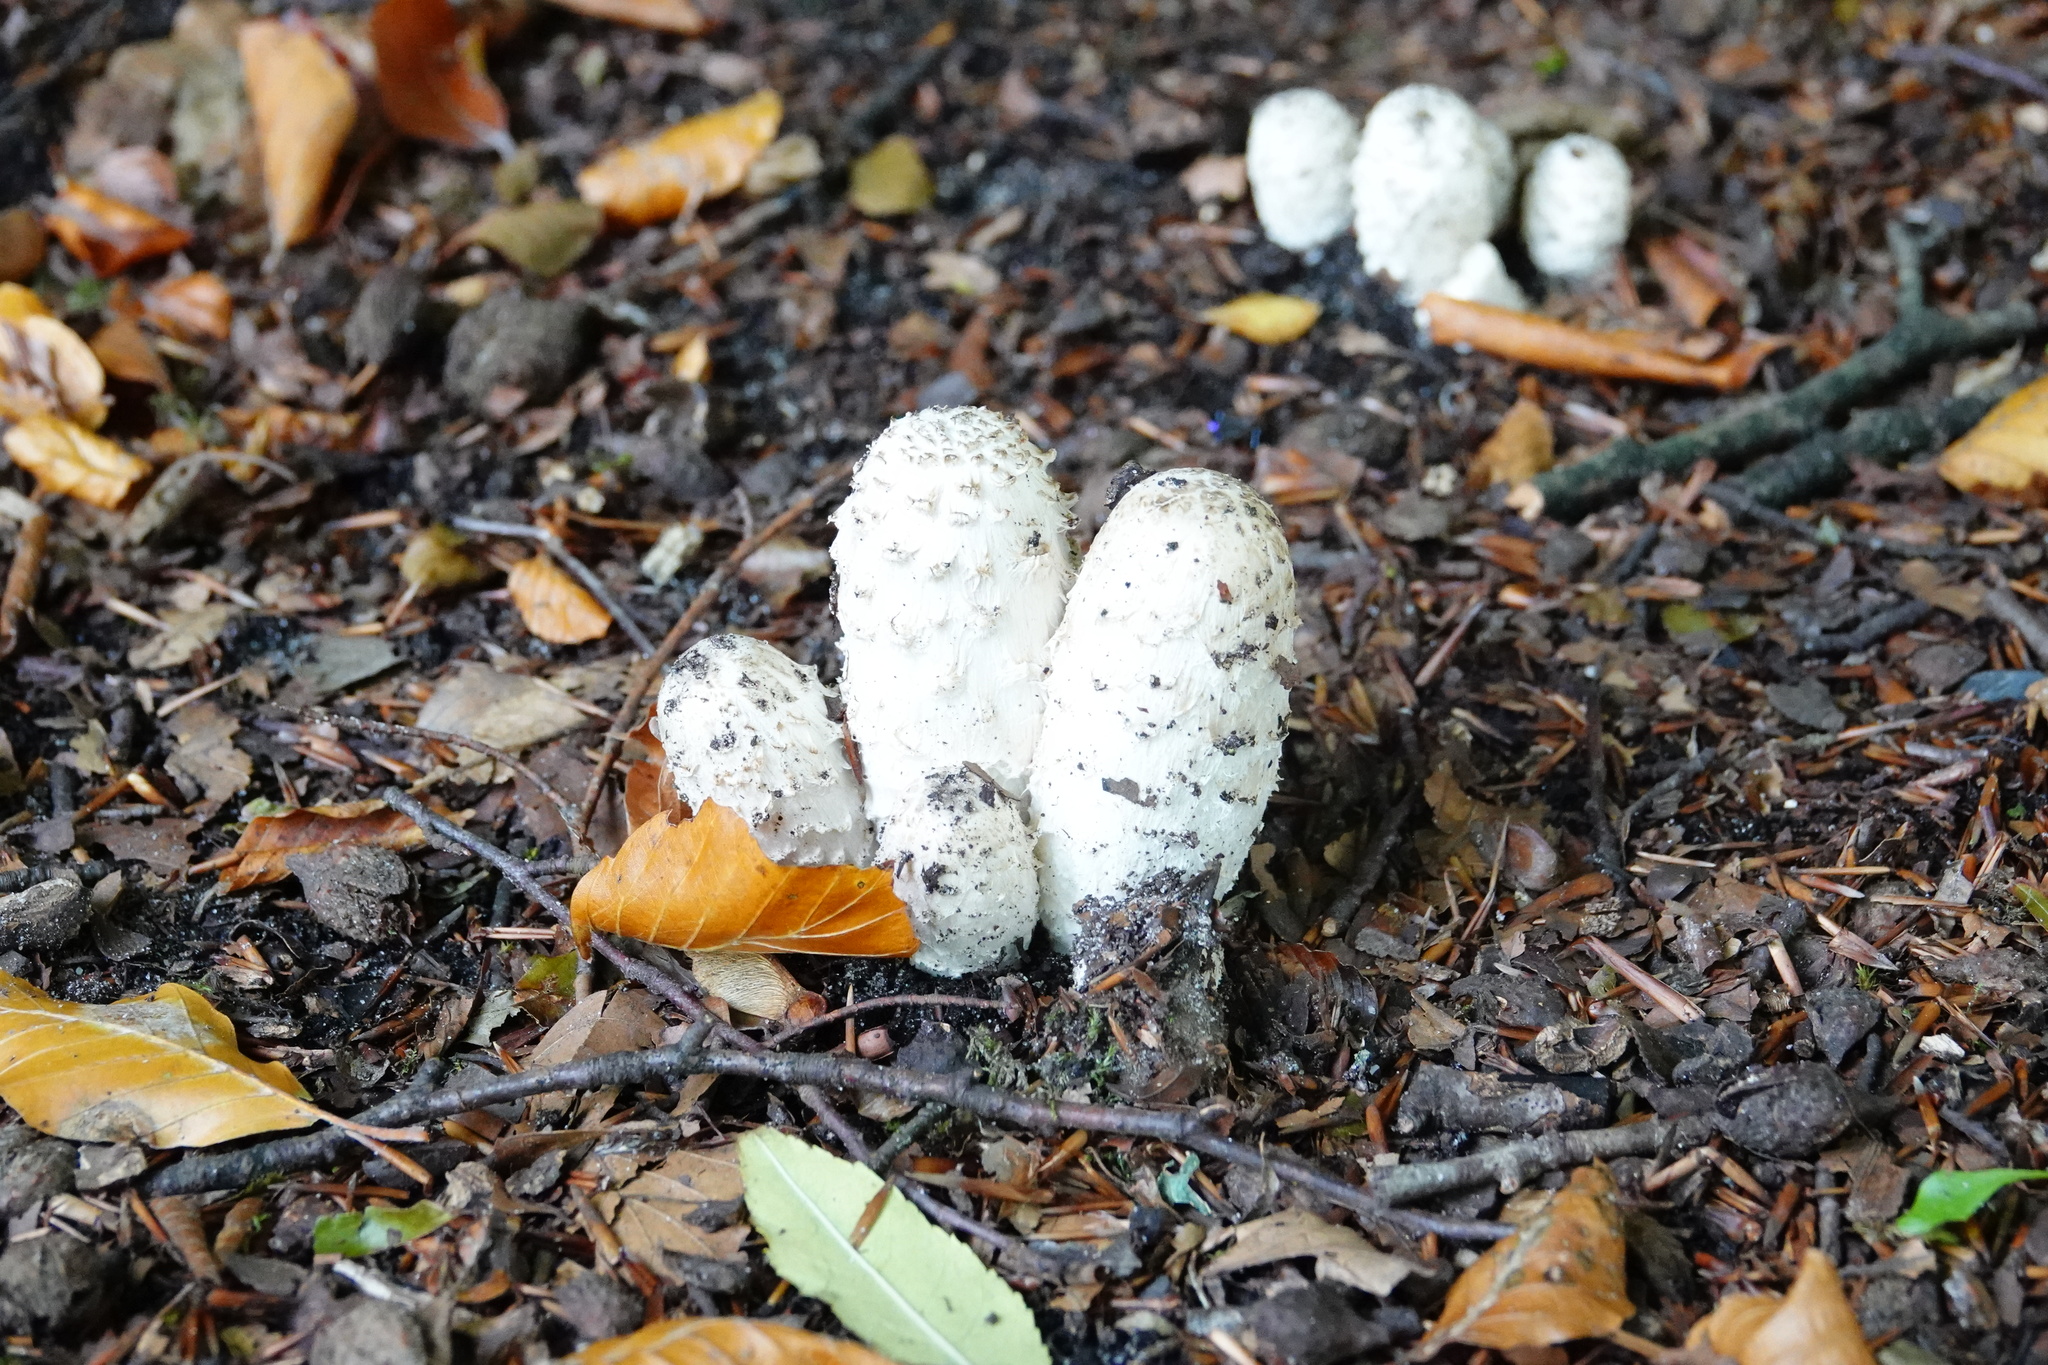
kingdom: Fungi
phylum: Basidiomycota
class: Agaricomycetes
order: Agaricales
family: Agaricaceae
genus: Coprinus
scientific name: Coprinus comatus
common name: Lawyer's wig
